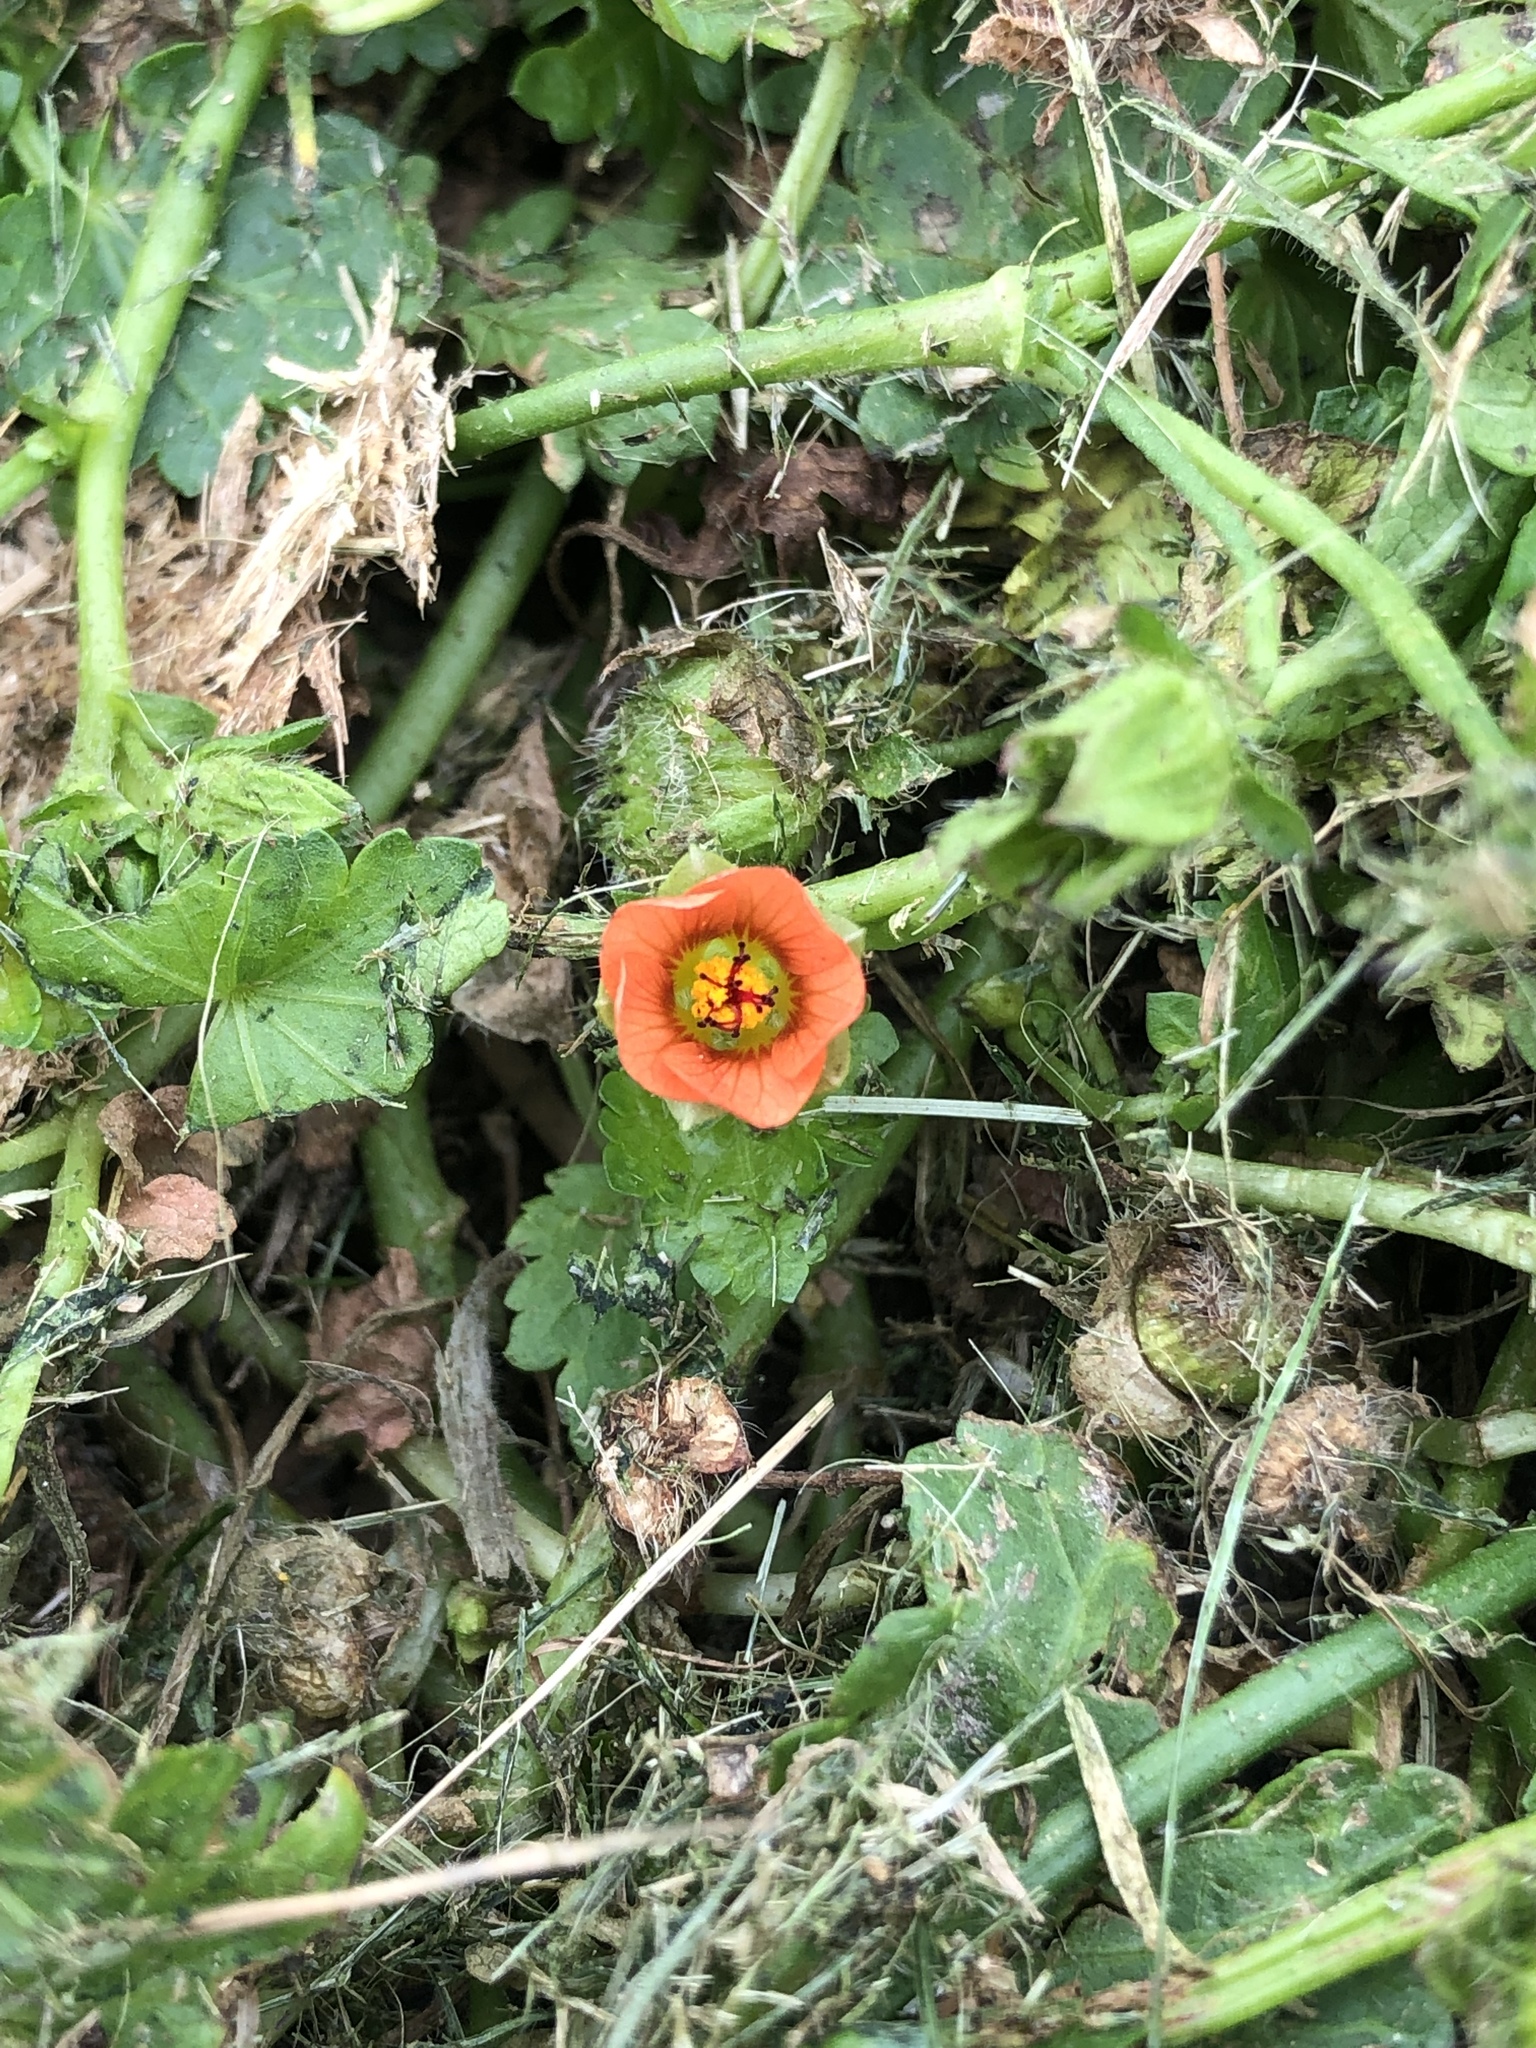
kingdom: Plantae
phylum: Tracheophyta
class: Magnoliopsida
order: Malvales
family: Malvaceae
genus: Modiola
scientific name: Modiola caroliniana
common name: Carolina bristlemallow
